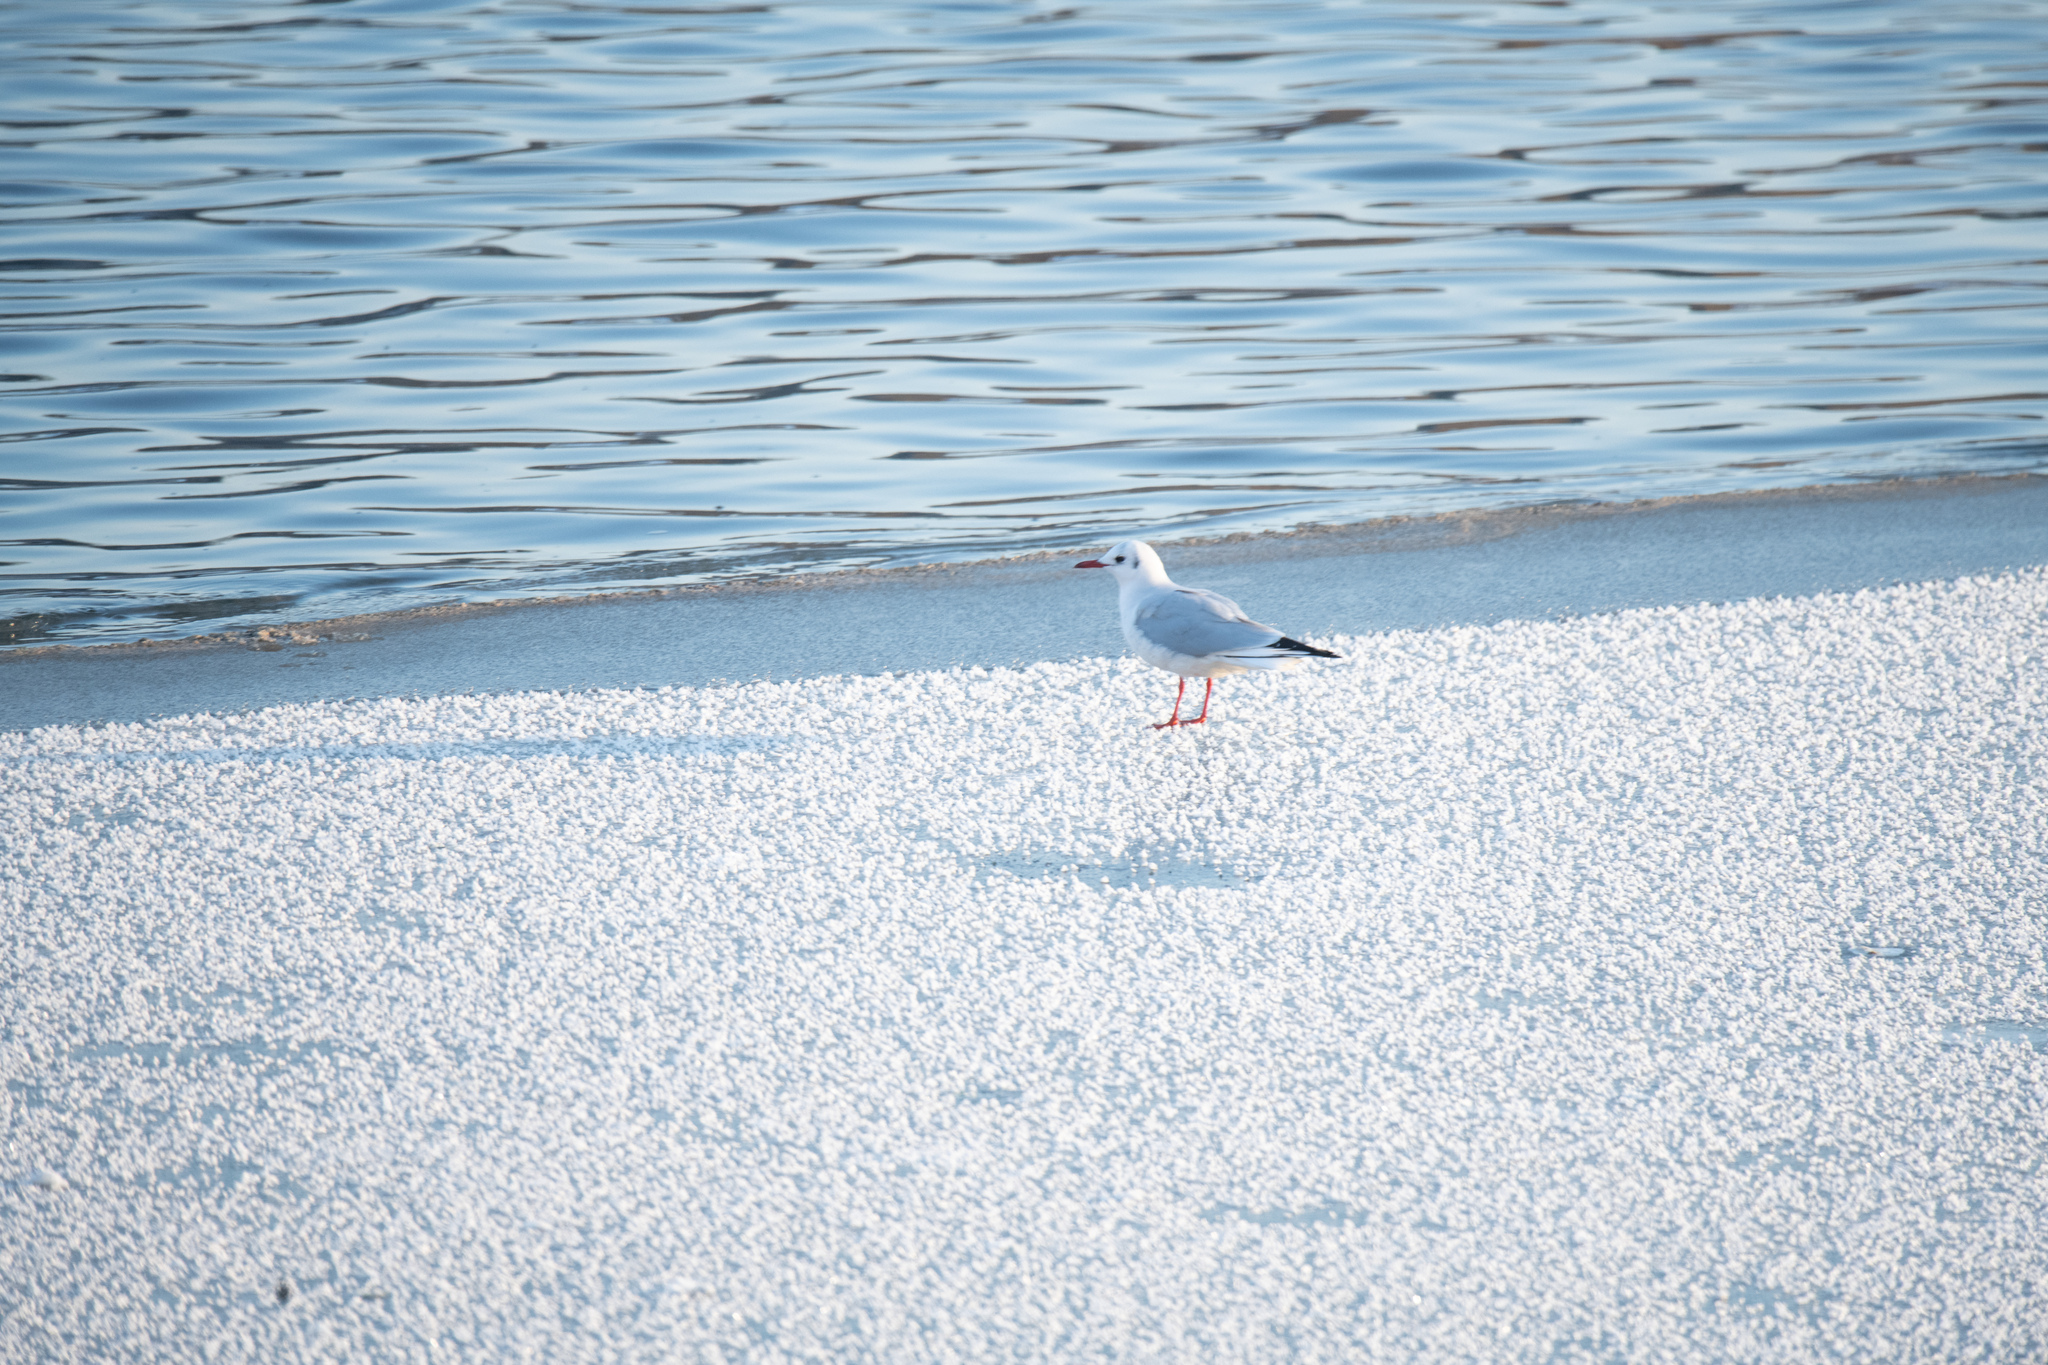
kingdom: Animalia
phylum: Chordata
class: Aves
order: Charadriiformes
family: Laridae
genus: Chroicocephalus
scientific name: Chroicocephalus ridibundus
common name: Black-headed gull
